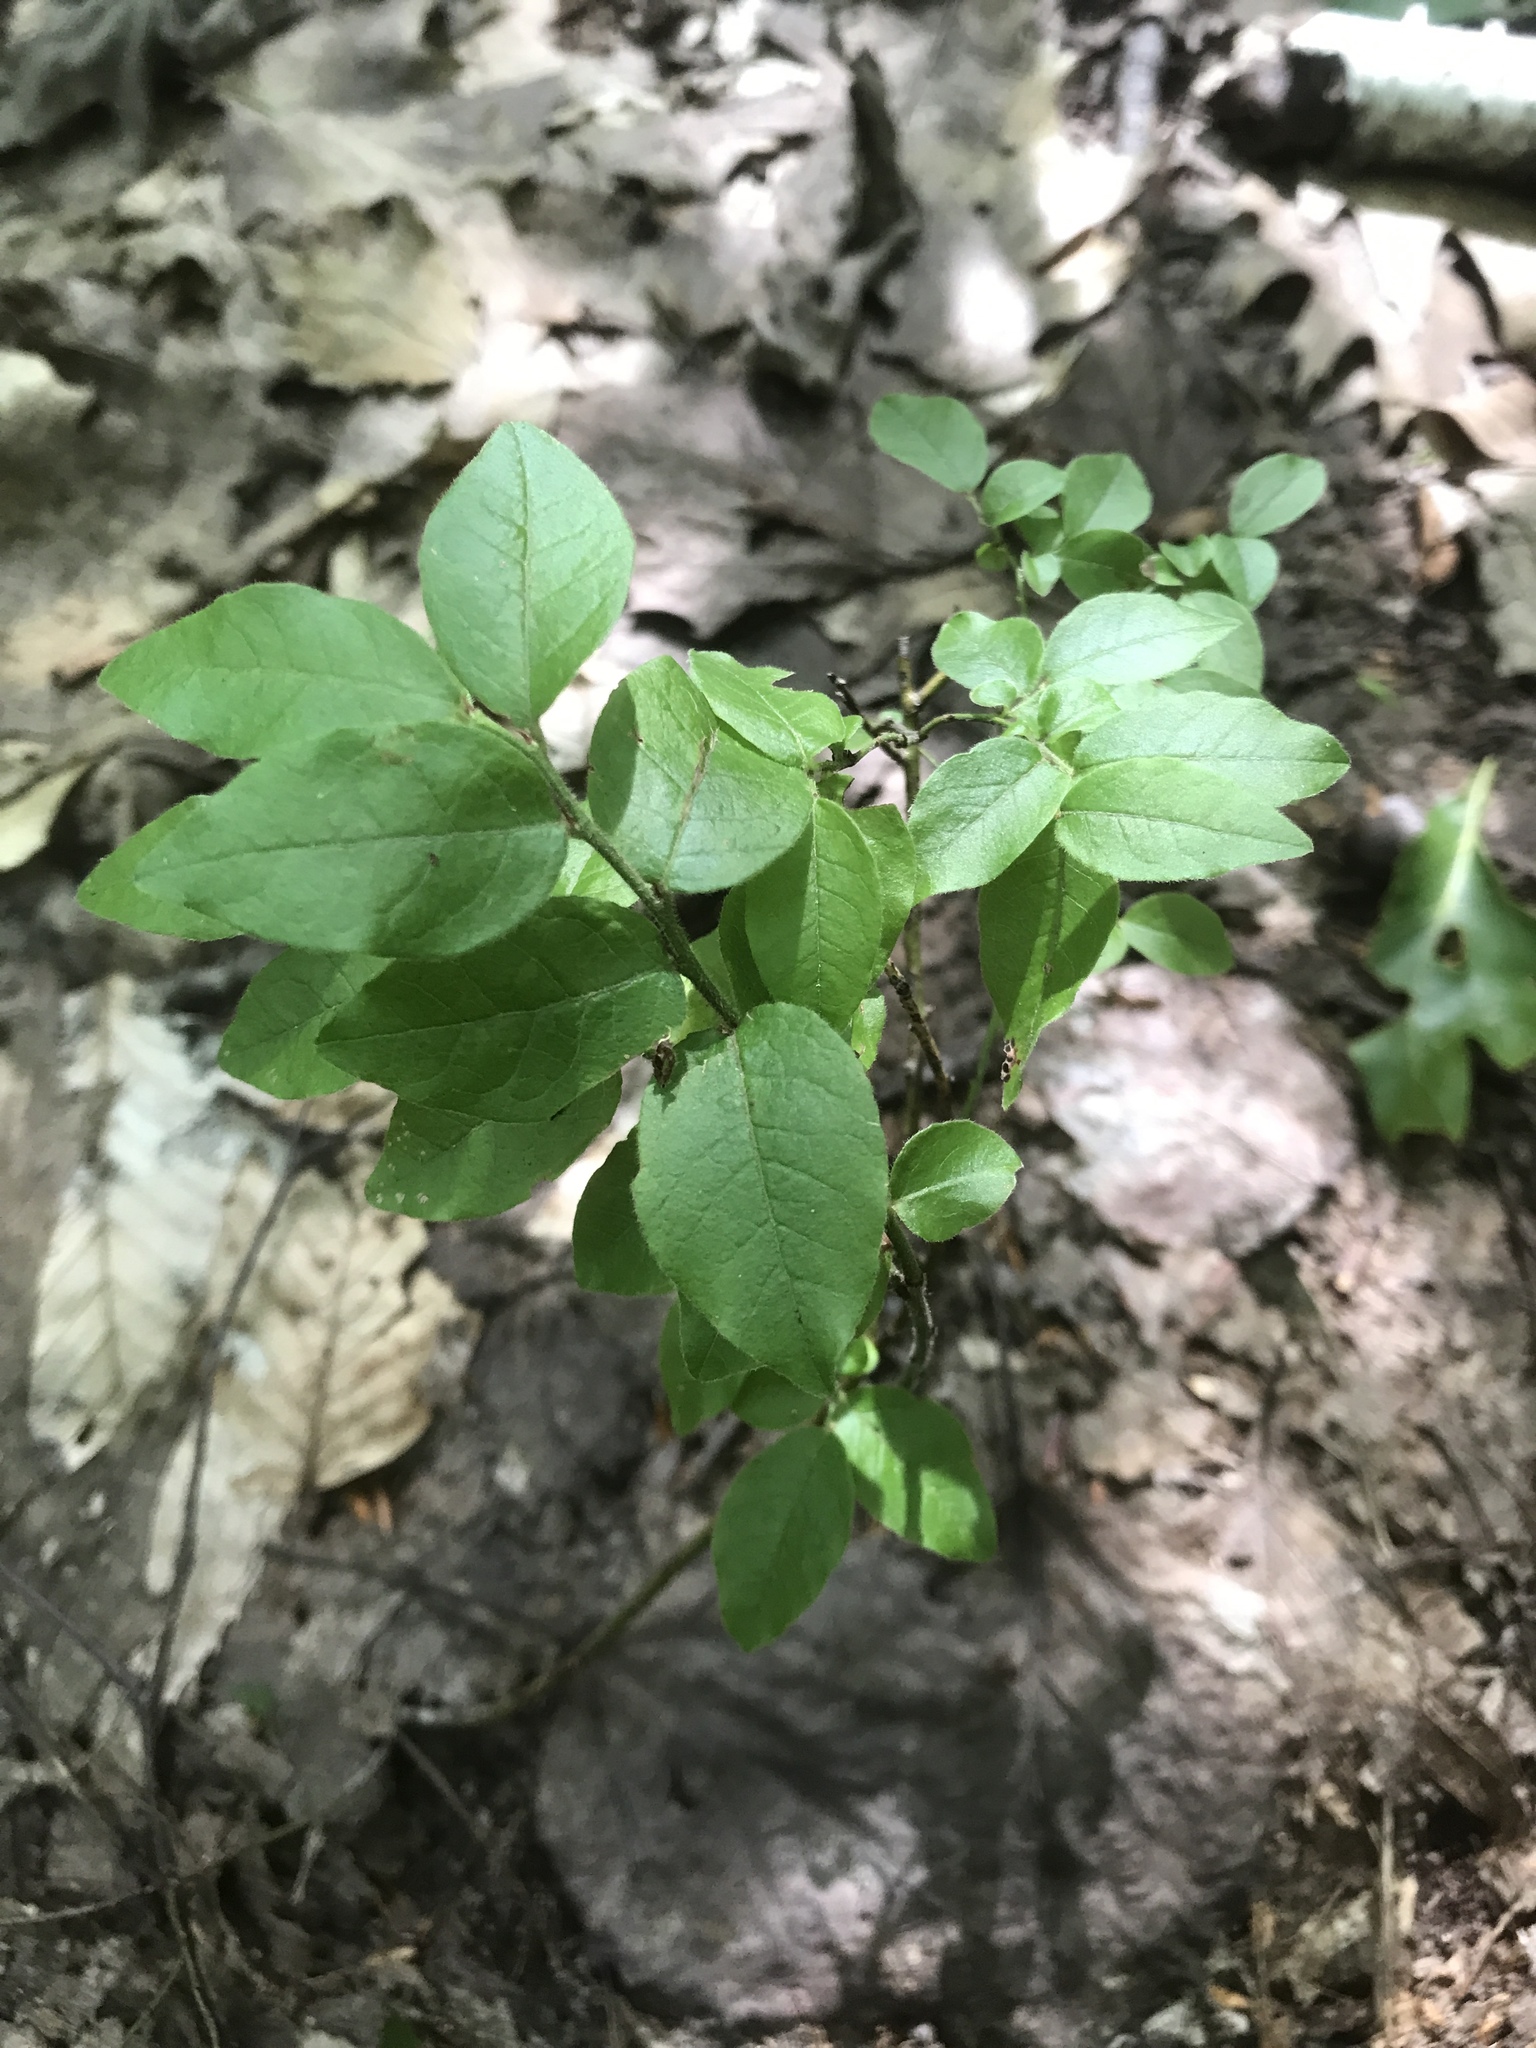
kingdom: Plantae
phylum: Tracheophyta
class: Magnoliopsida
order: Ericales
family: Ericaceae
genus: Vaccinium
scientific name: Vaccinium pallidum
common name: Blue ridge blueberry
